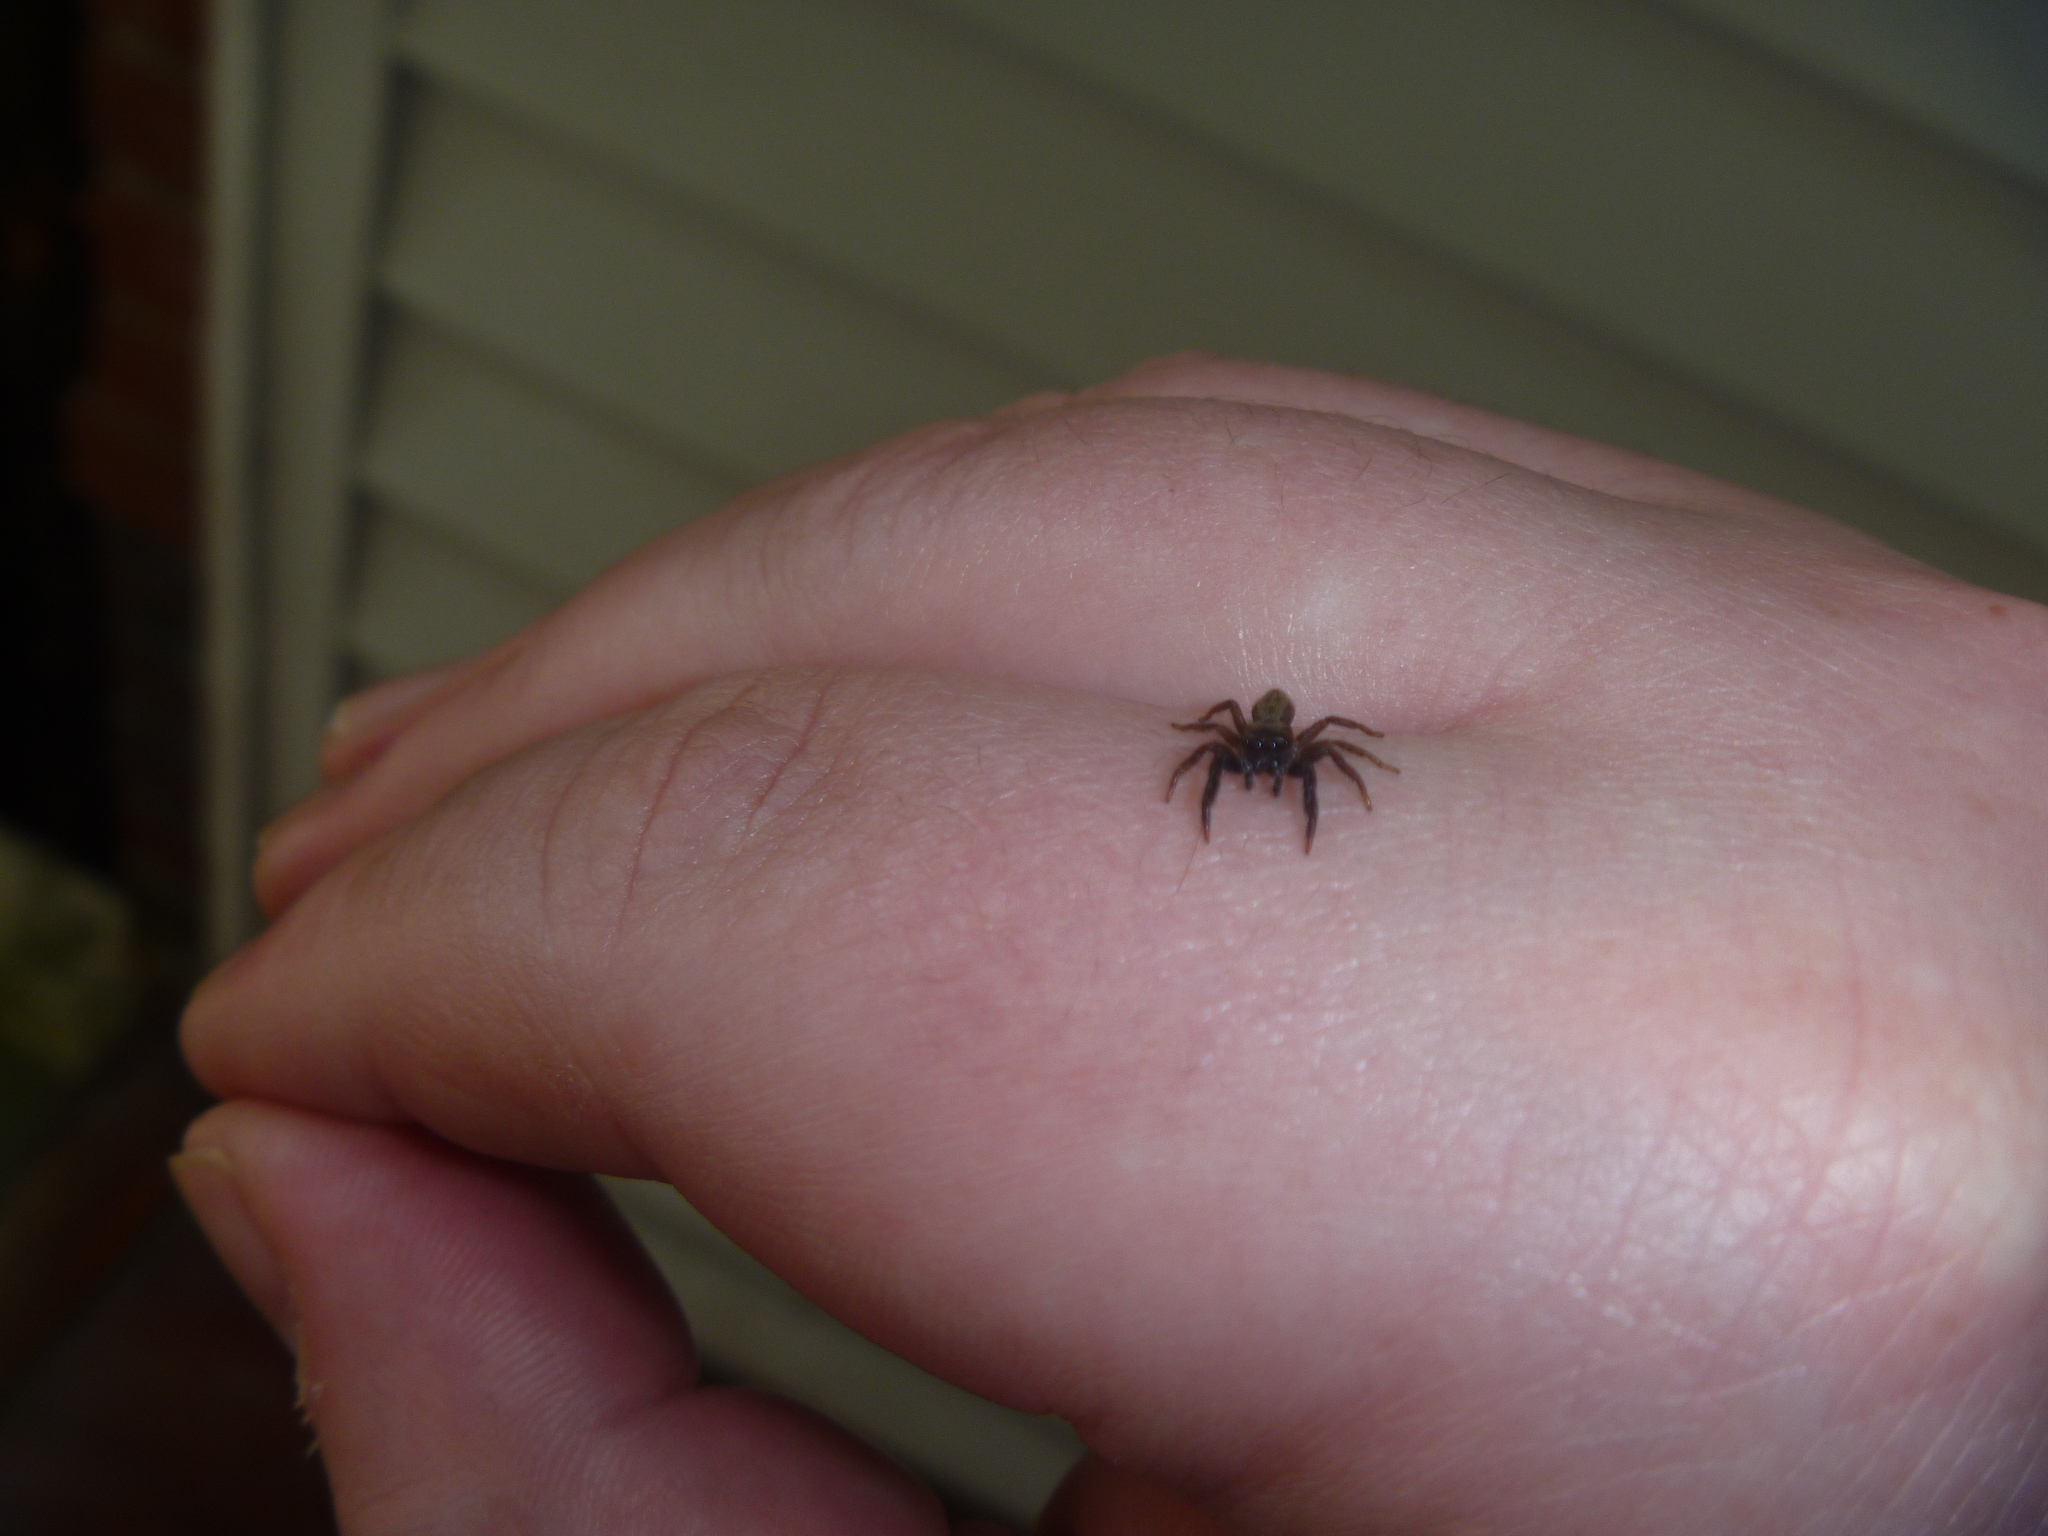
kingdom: Animalia
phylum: Arthropoda
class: Arachnida
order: Araneae
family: Salticidae
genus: Trite
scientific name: Trite auricoma
